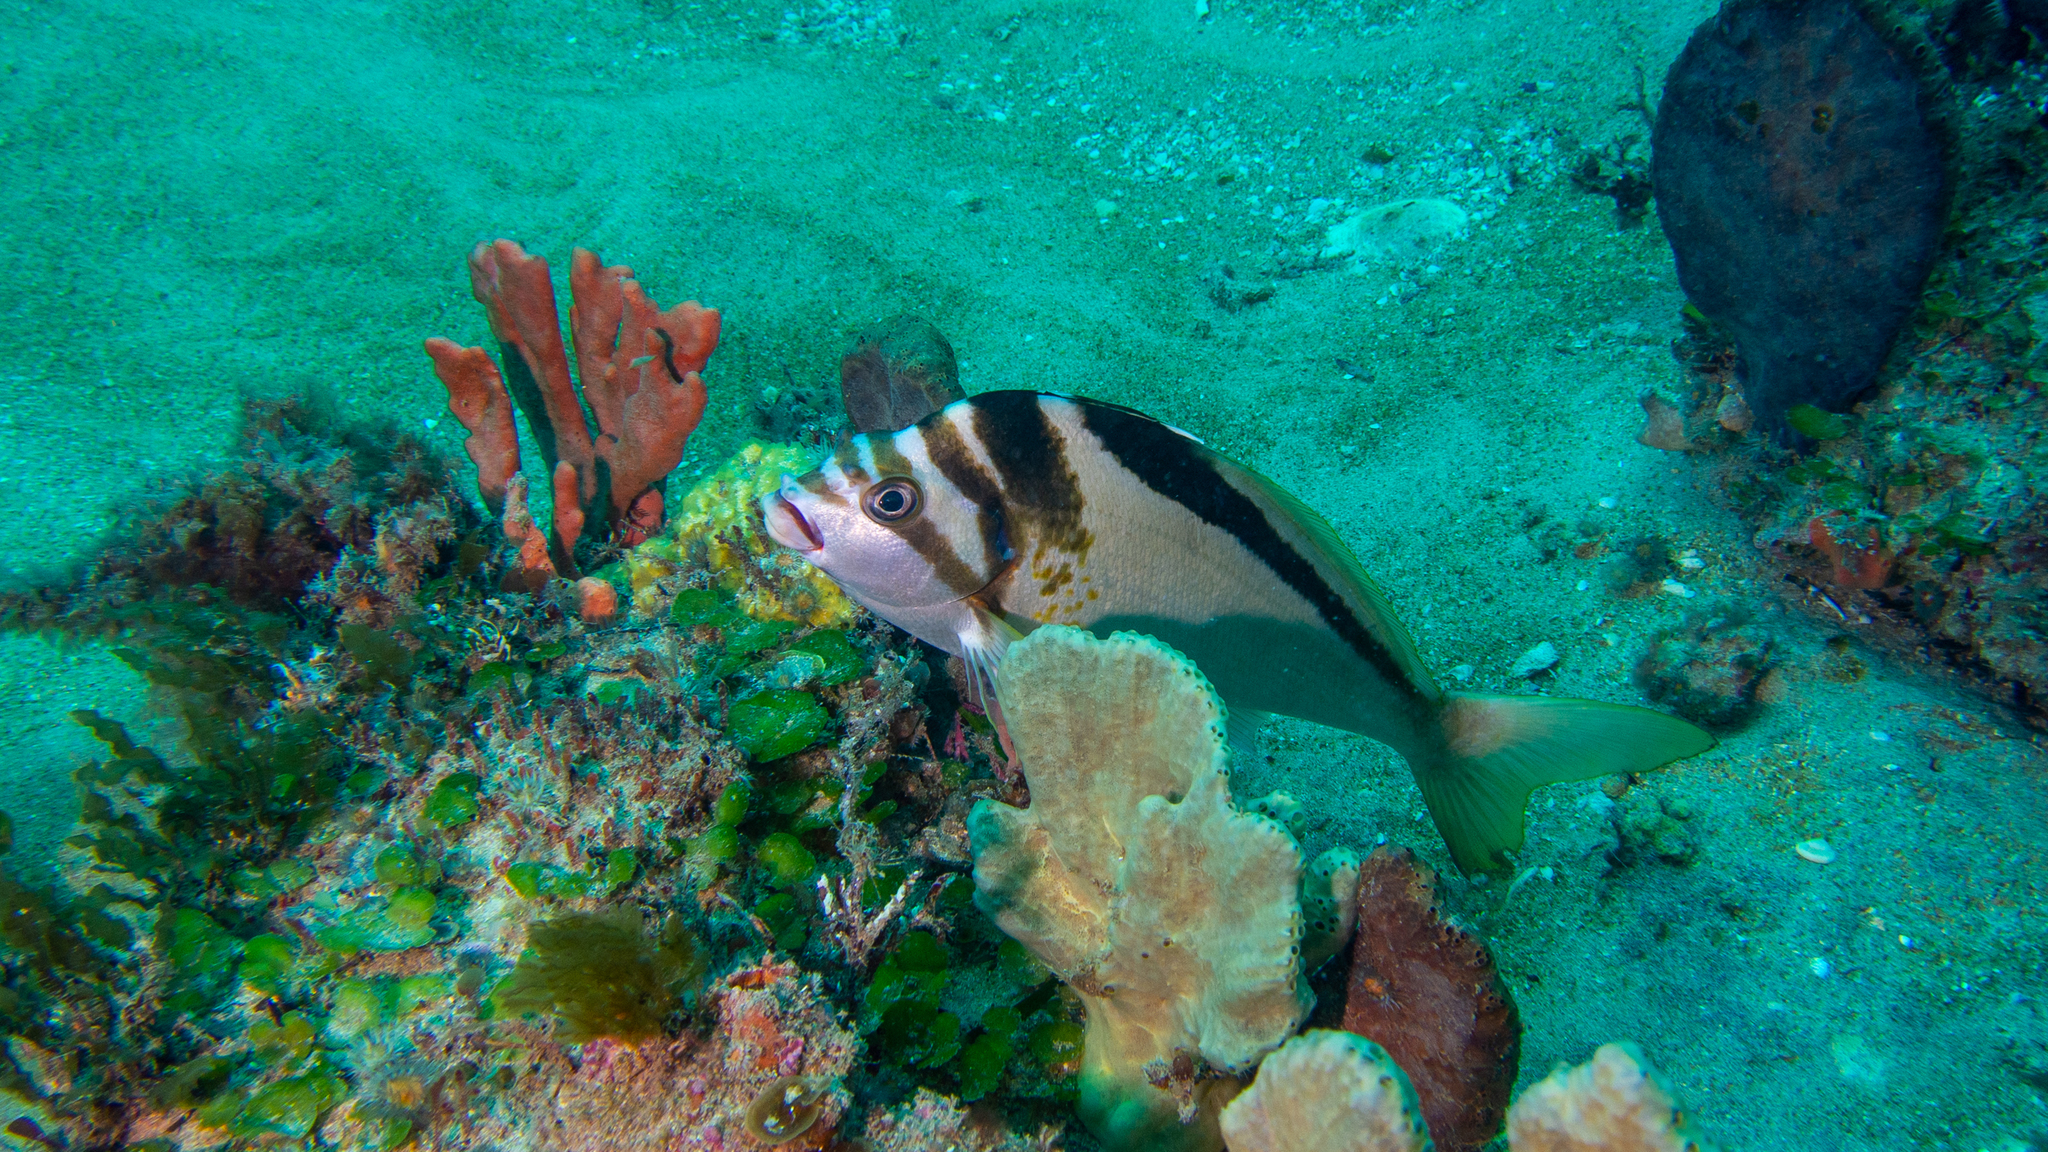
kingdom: Animalia
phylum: Chordata
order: Perciformes
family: Cheilodactylidae
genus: Cheilodactylus
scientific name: Cheilodactylus gibbosus
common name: Crested morwong
